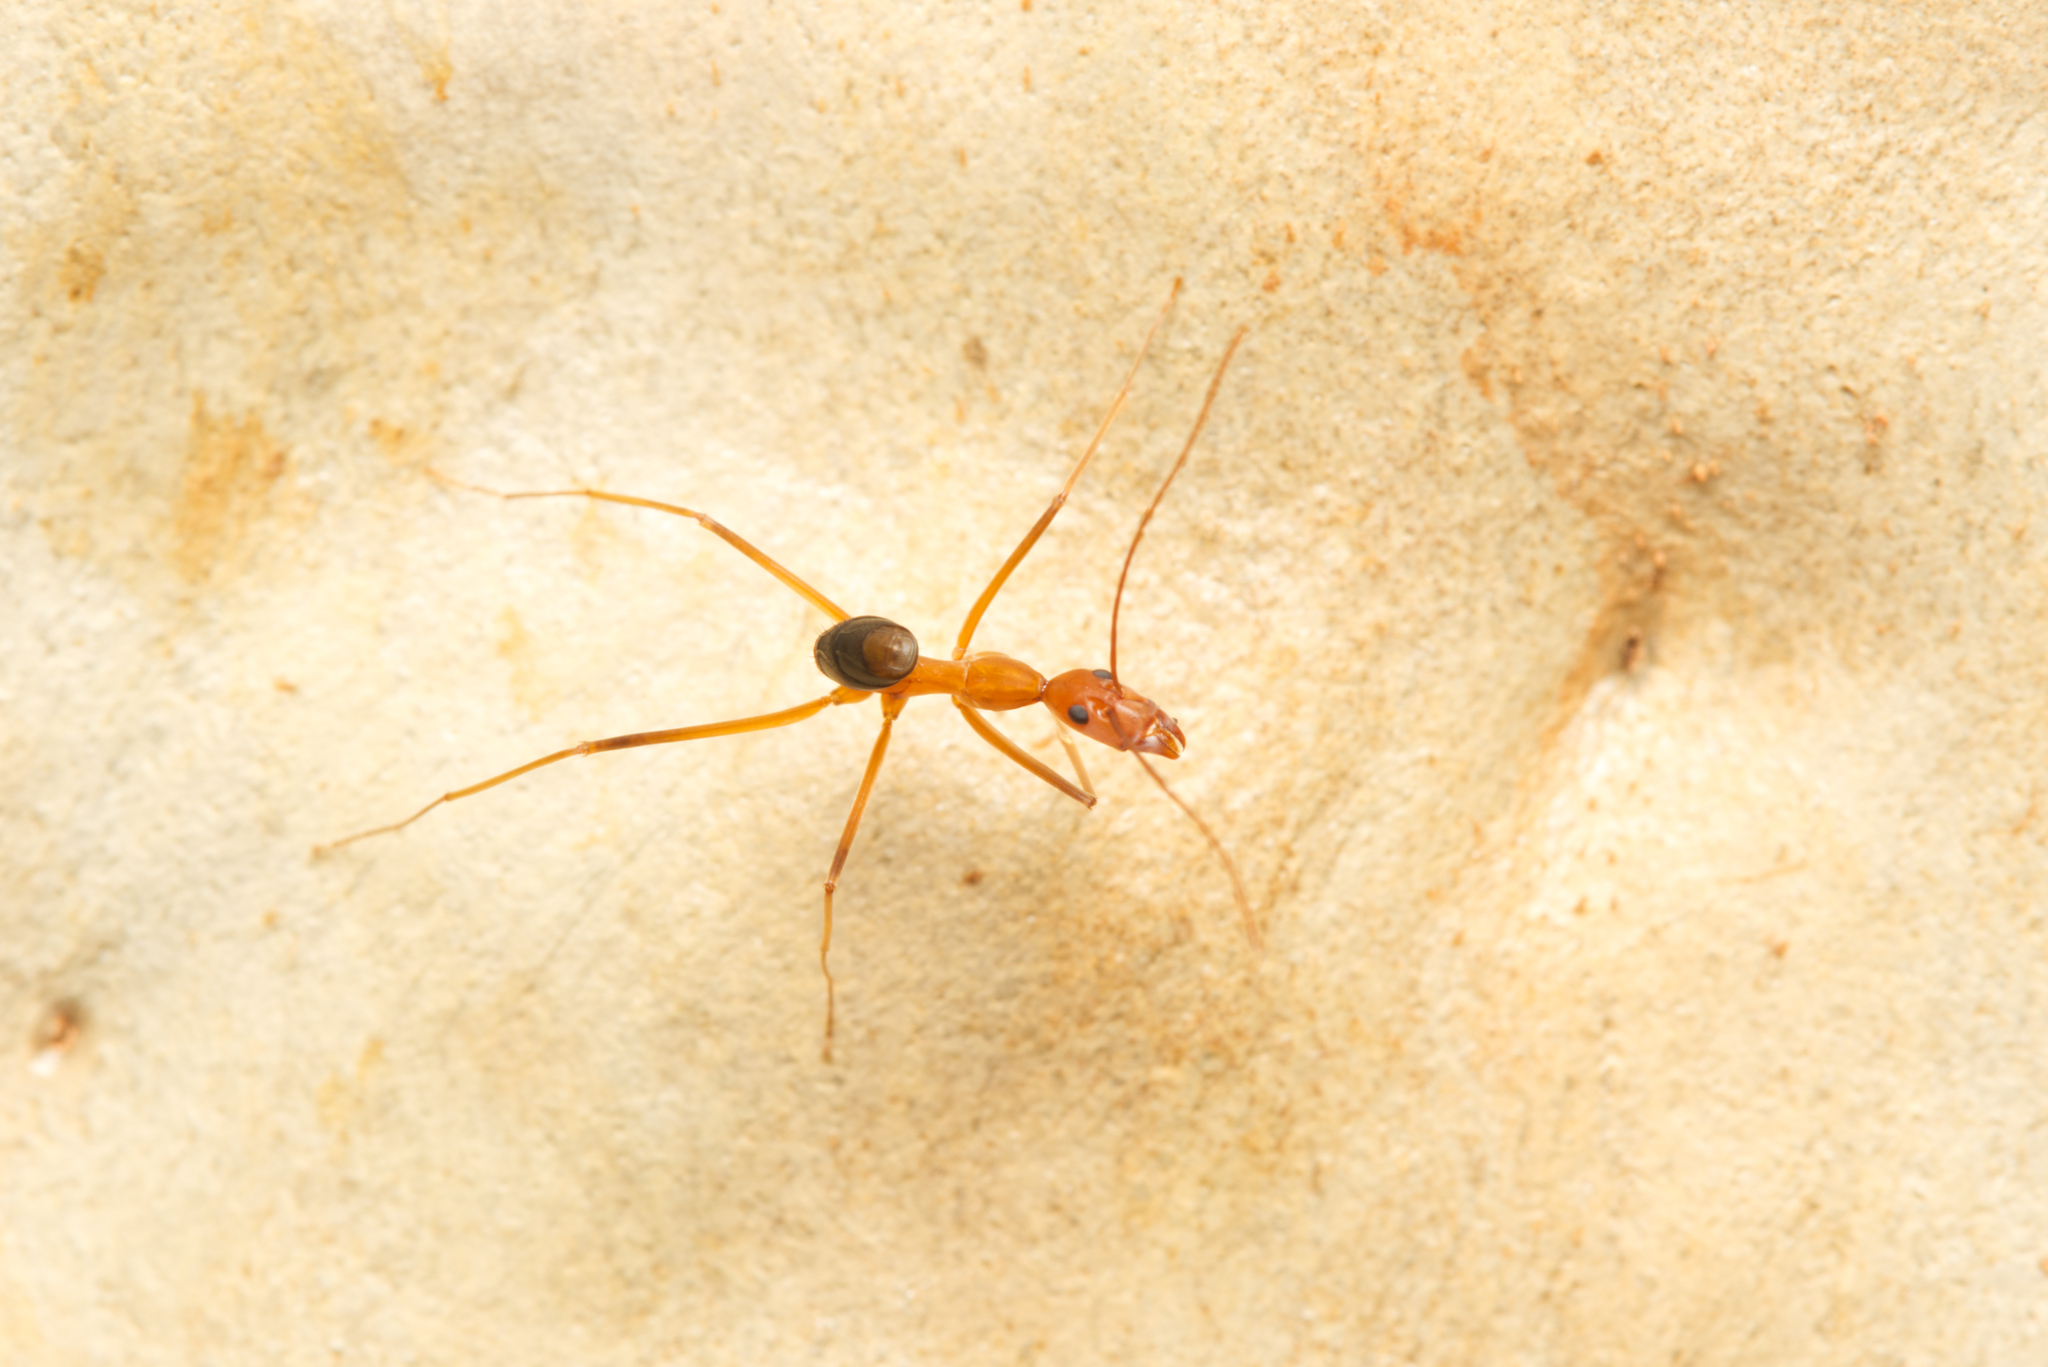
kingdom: Animalia
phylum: Arthropoda
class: Insecta
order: Hymenoptera
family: Formicidae
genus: Leptomyrmex
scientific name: Leptomyrmex rufipes
